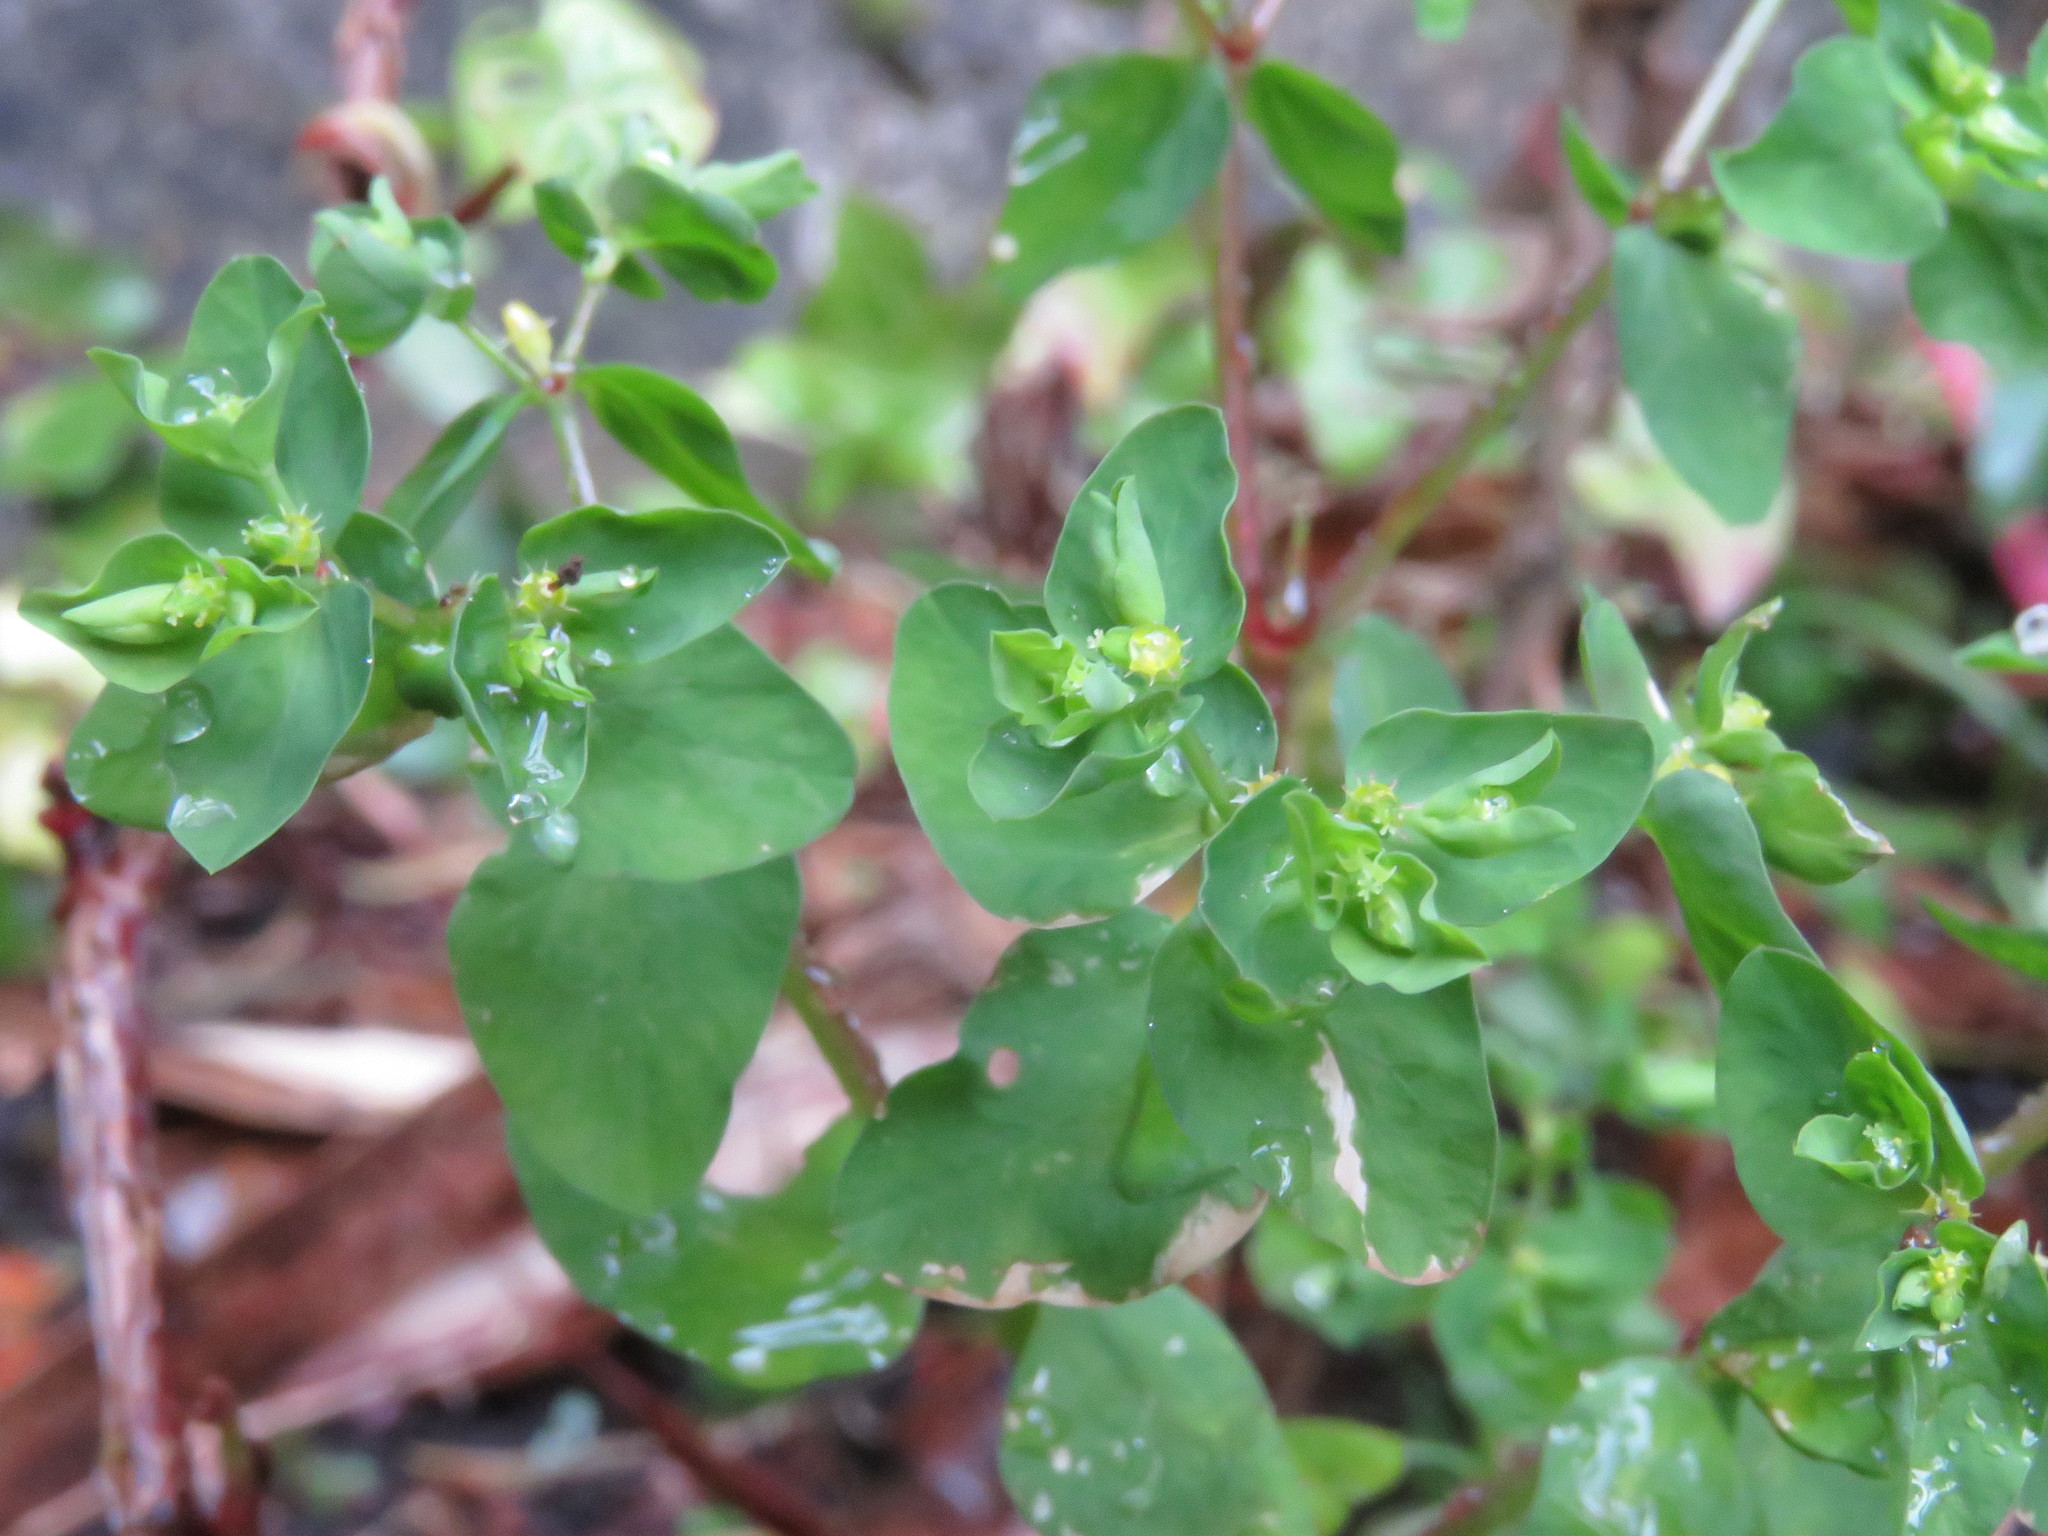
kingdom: Plantae
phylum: Tracheophyta
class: Magnoliopsida
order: Malpighiales
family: Euphorbiaceae
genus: Euphorbia
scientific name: Euphorbia peplus
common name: Petty spurge
